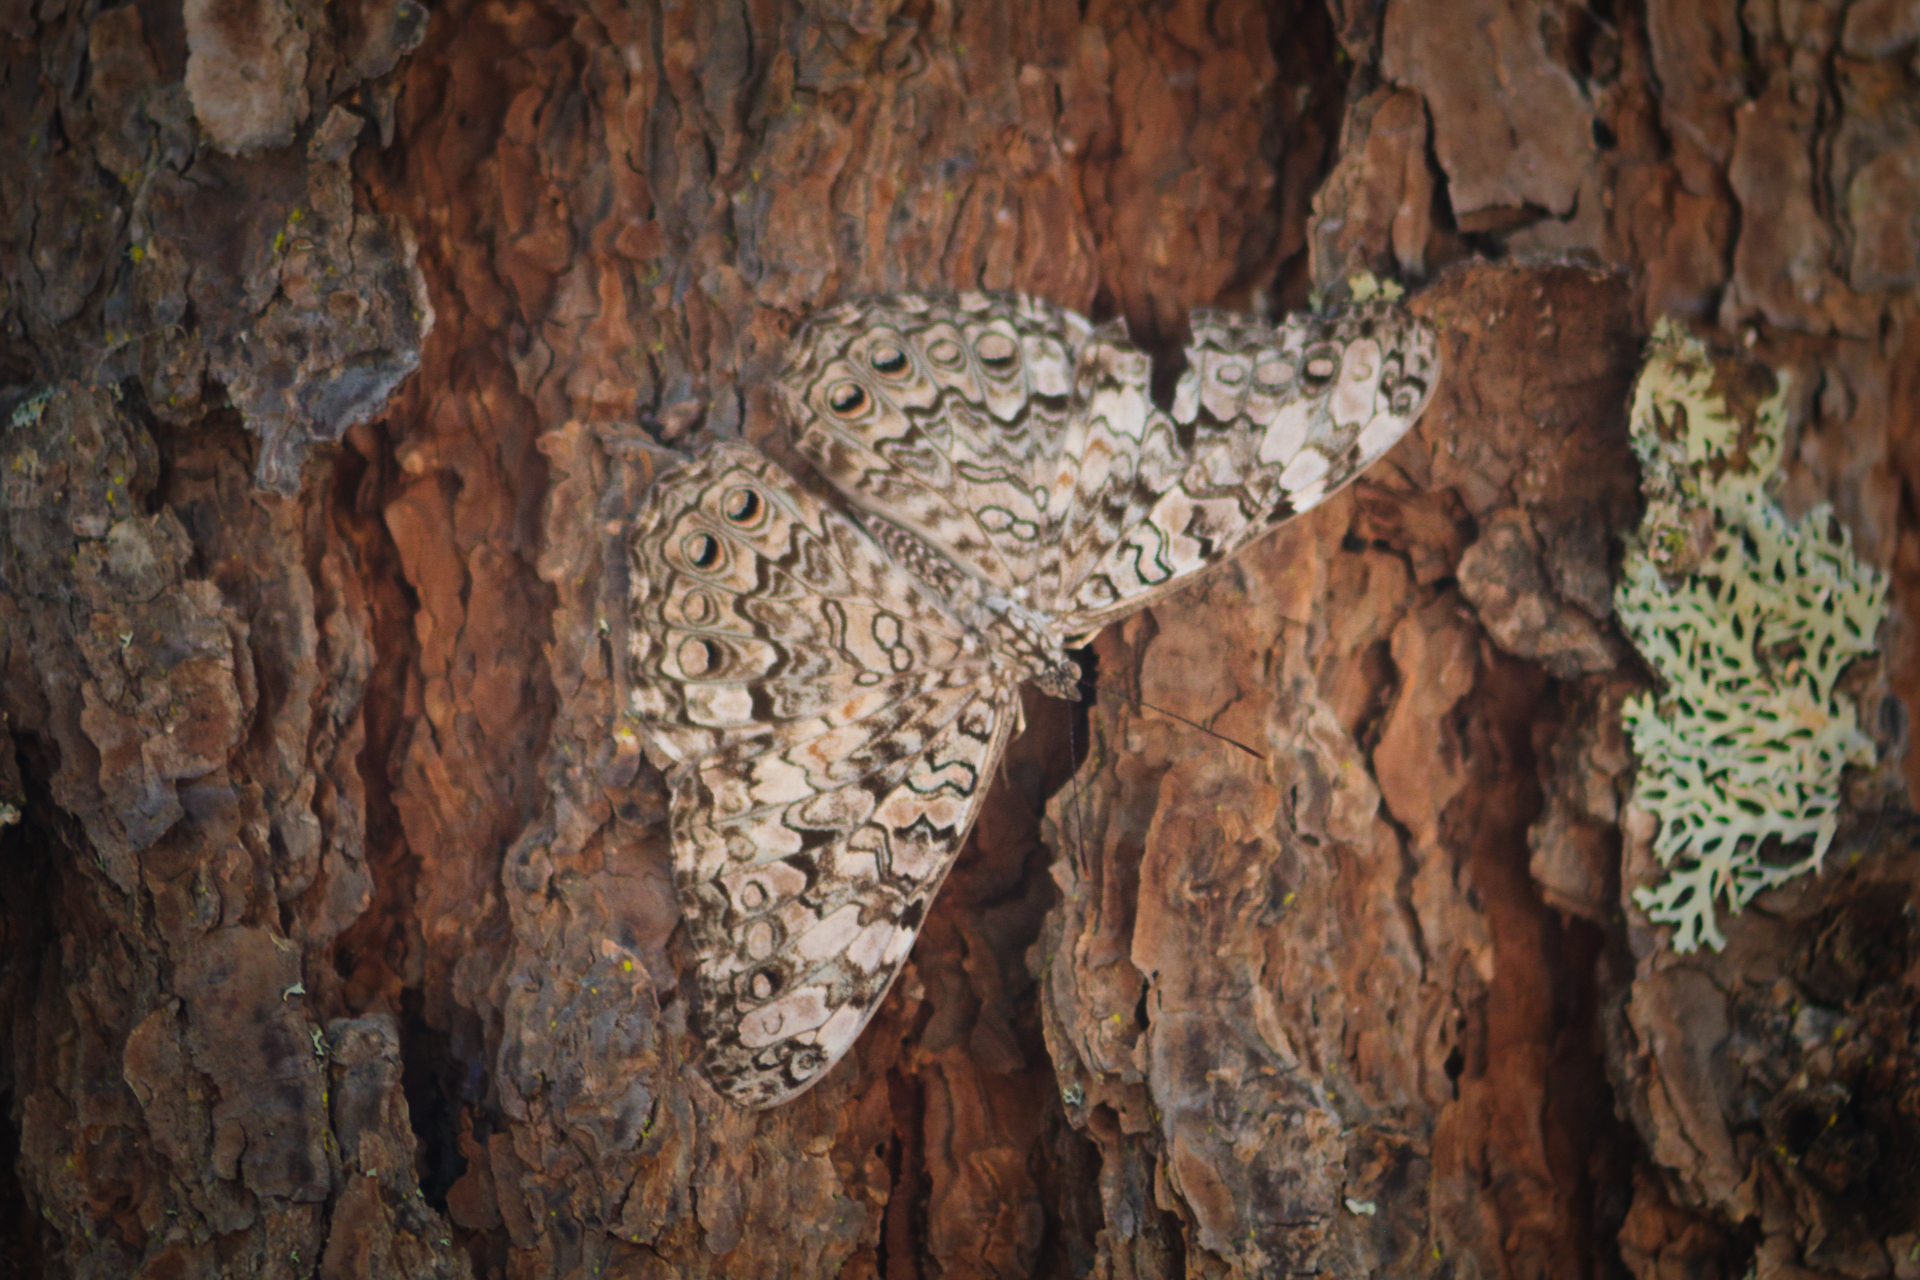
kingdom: Animalia
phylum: Arthropoda
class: Insecta
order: Lepidoptera
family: Nymphalidae
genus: Hamadryas
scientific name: Hamadryas februa
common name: Gray cracker
